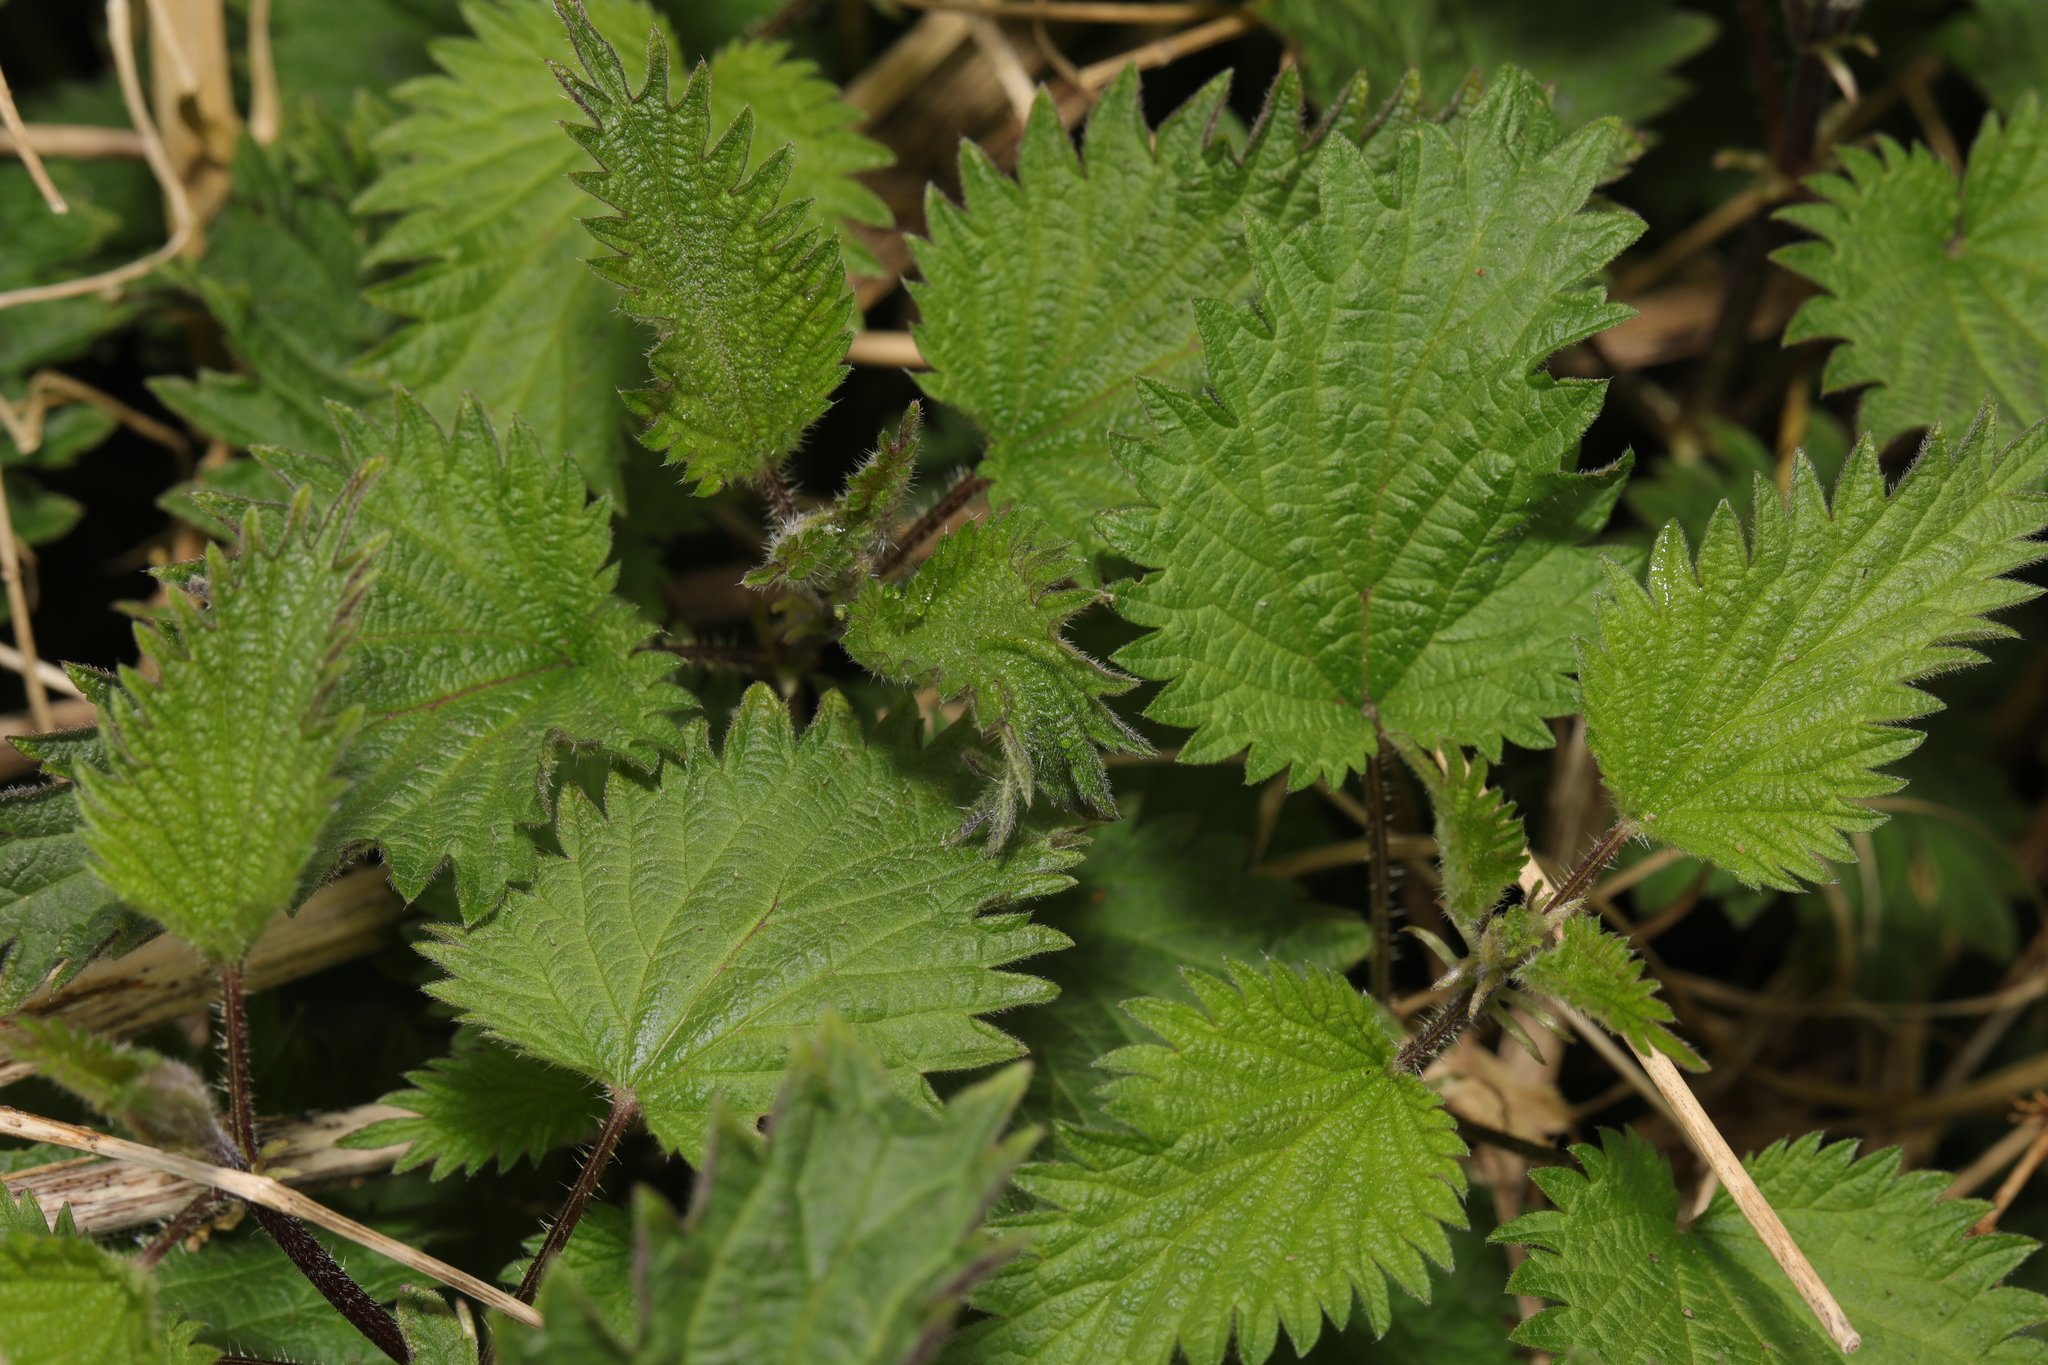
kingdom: Plantae
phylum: Tracheophyta
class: Magnoliopsida
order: Rosales
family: Urticaceae
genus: Urtica
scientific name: Urtica dioica
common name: Common nettle
